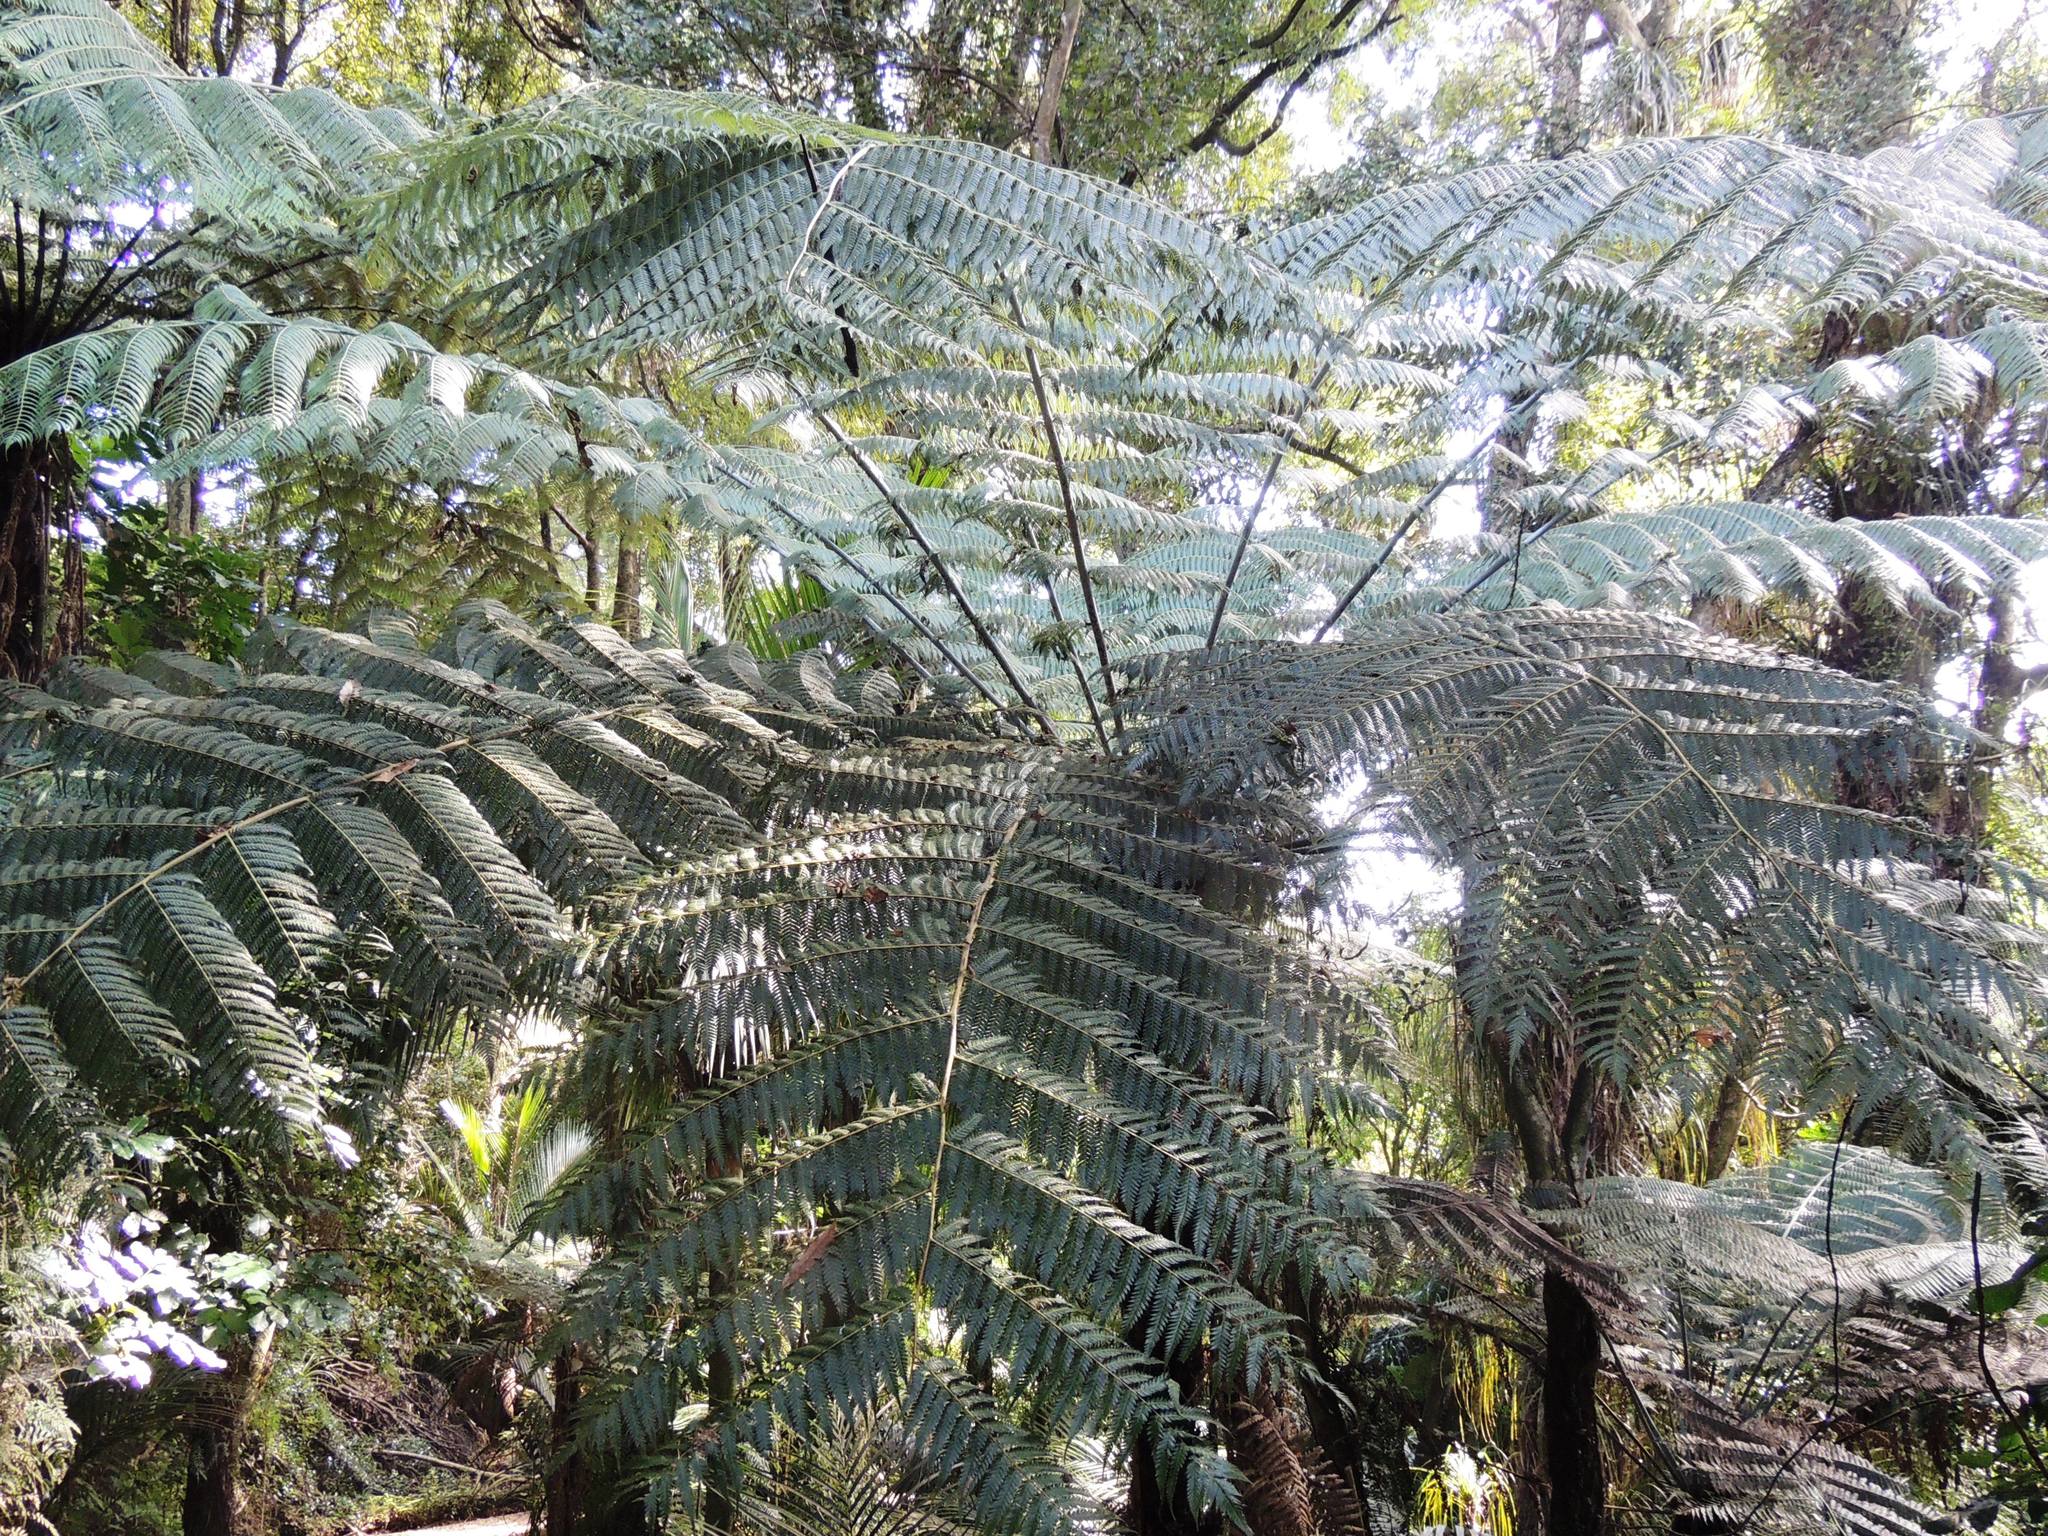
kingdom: Plantae
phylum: Tracheophyta
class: Polypodiopsida
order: Cyatheales
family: Cyatheaceae
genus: Alsophila
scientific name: Alsophila dealbata
